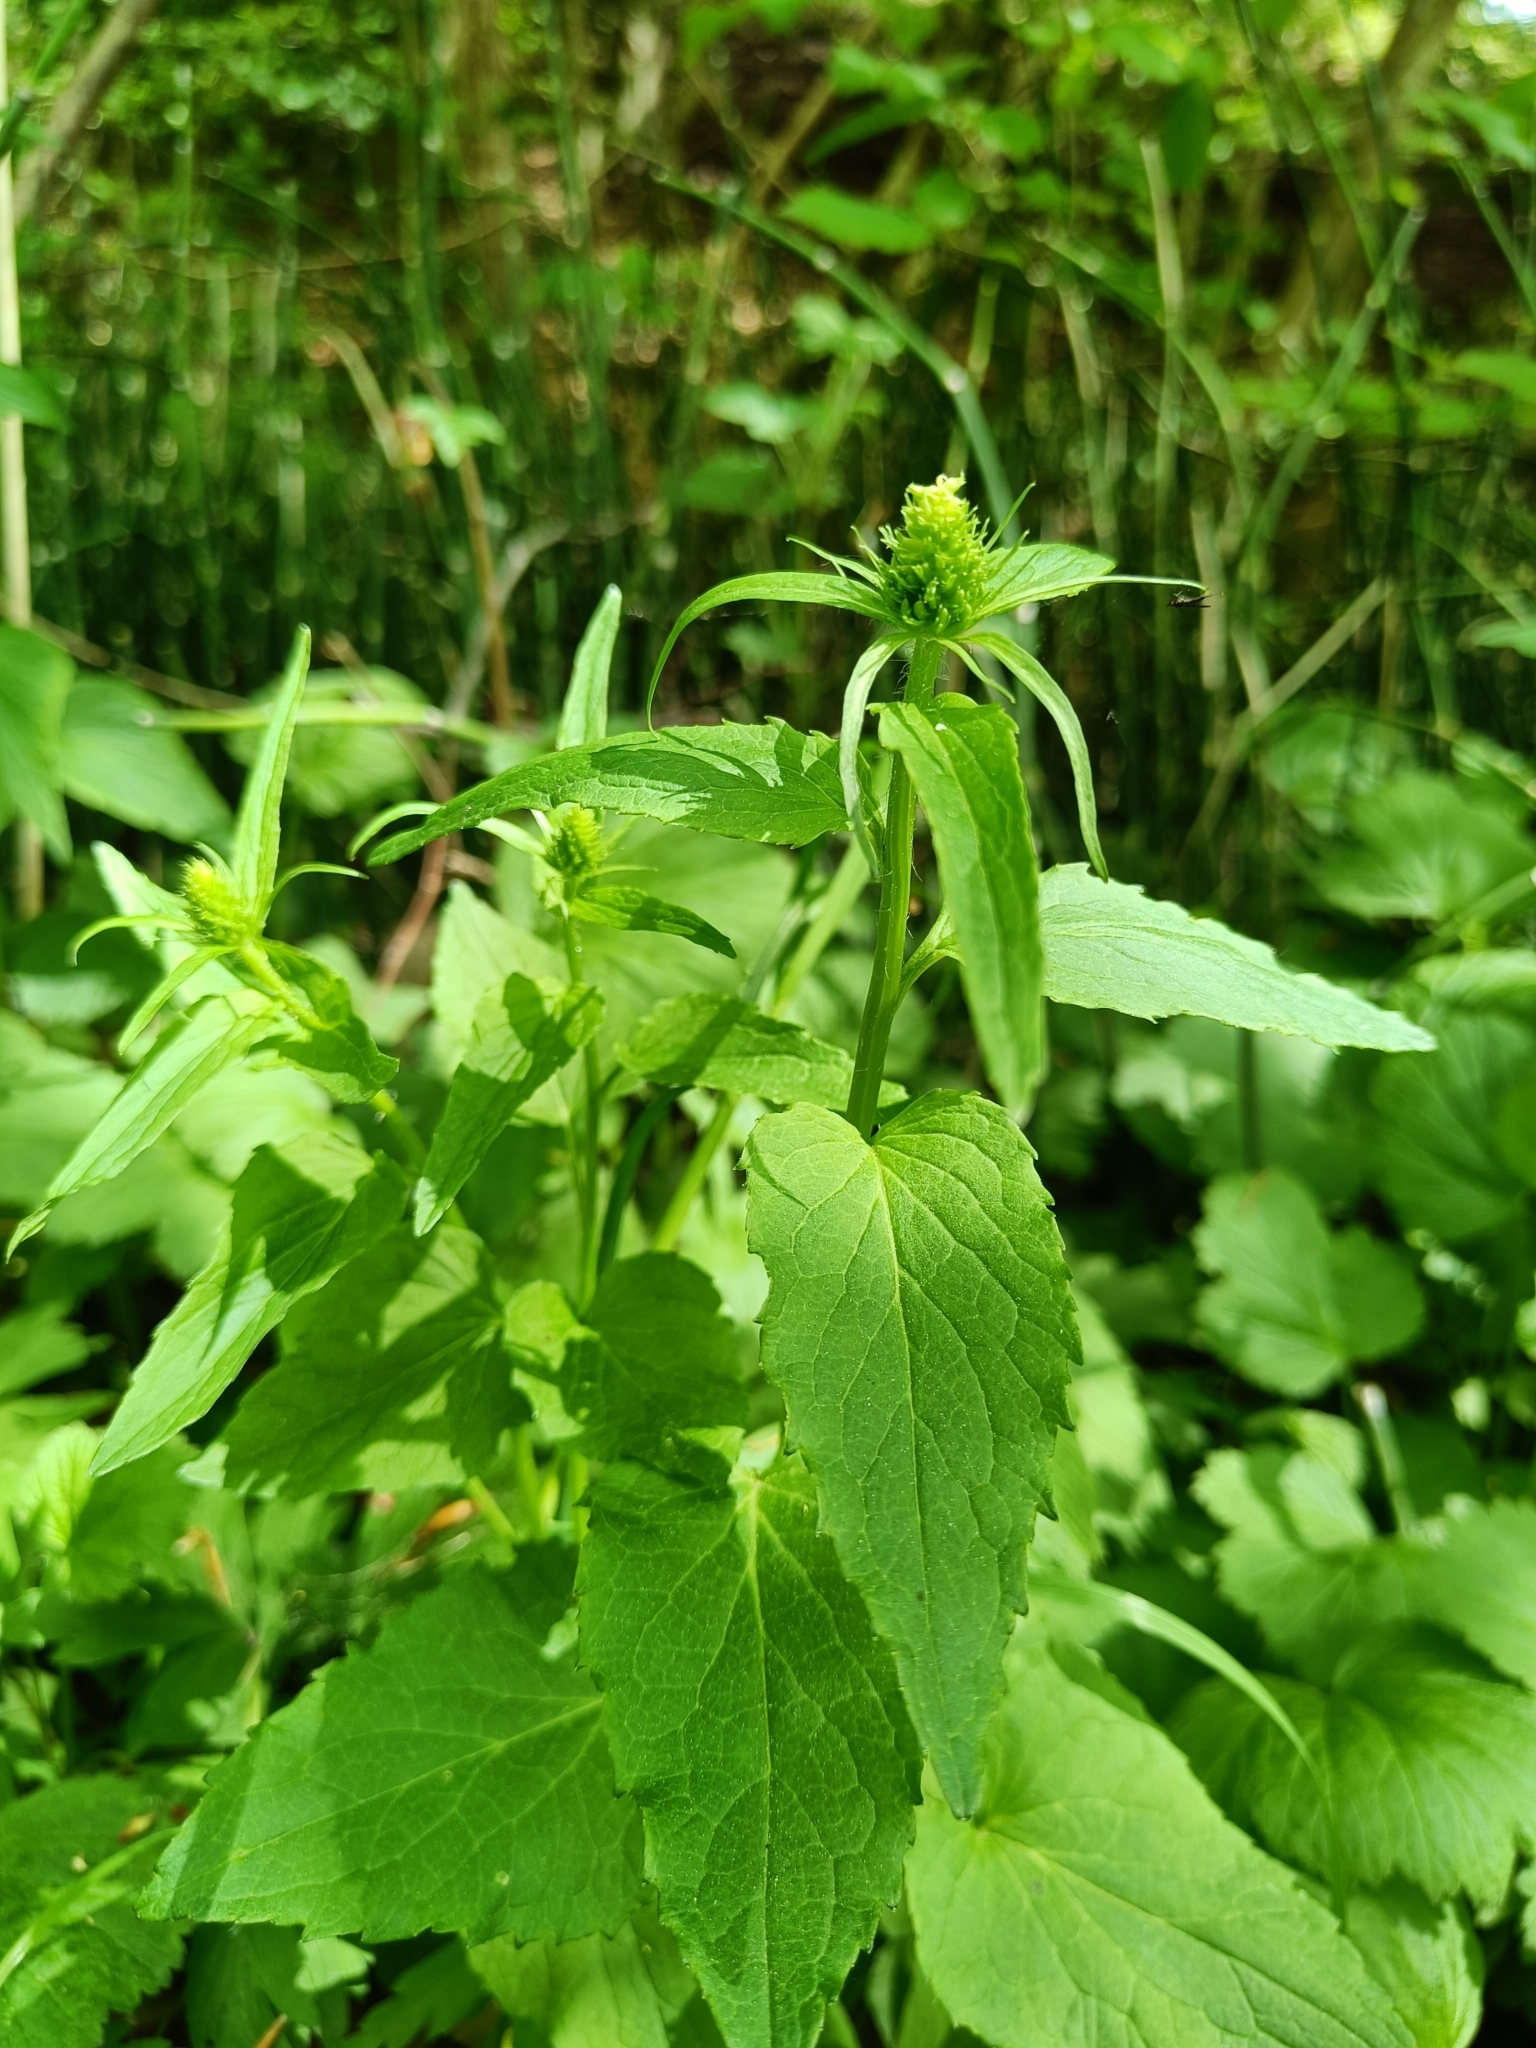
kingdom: Plantae
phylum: Tracheophyta
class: Magnoliopsida
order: Asterales
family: Campanulaceae
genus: Phyteuma
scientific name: Phyteuma spicatum
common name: Spiked rampion
